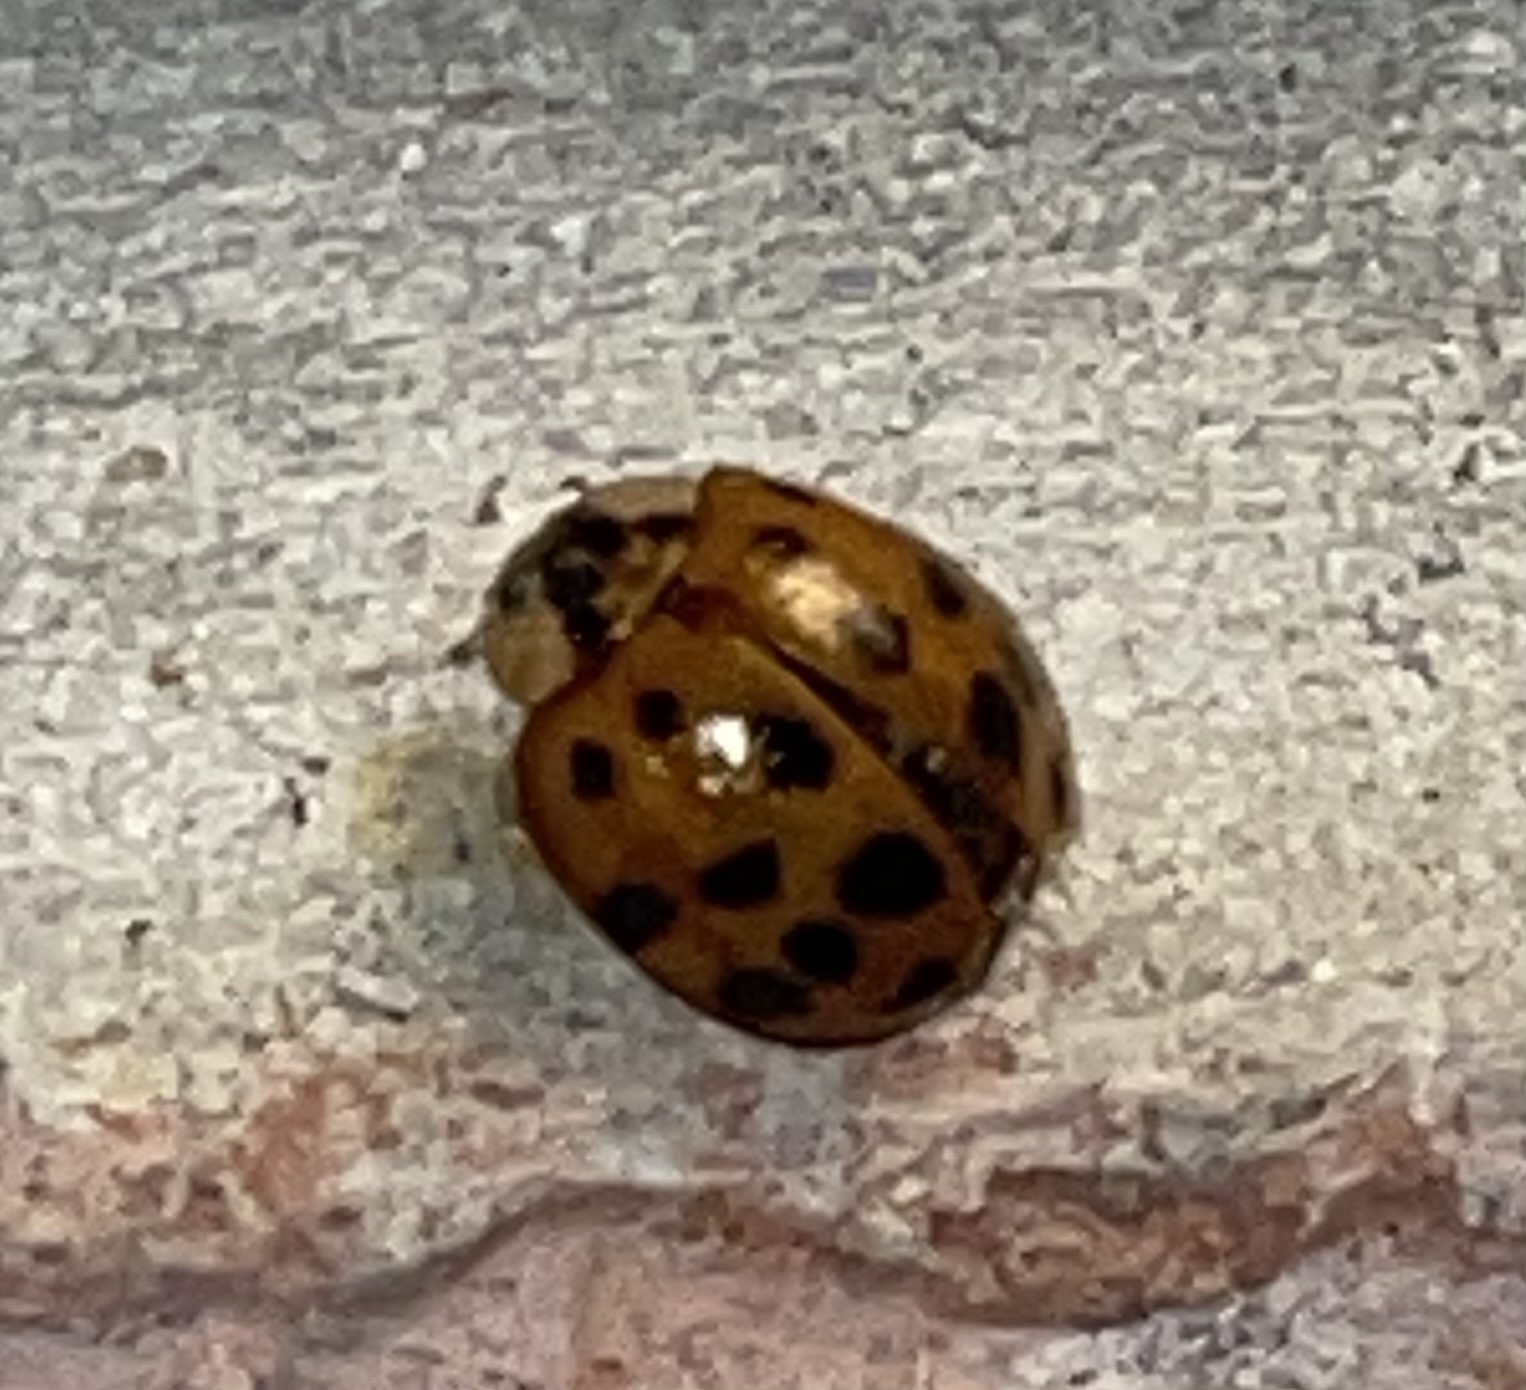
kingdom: Animalia
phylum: Arthropoda
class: Insecta
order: Coleoptera
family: Coccinellidae
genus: Harmonia
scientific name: Harmonia axyridis
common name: Harlequin ladybird
